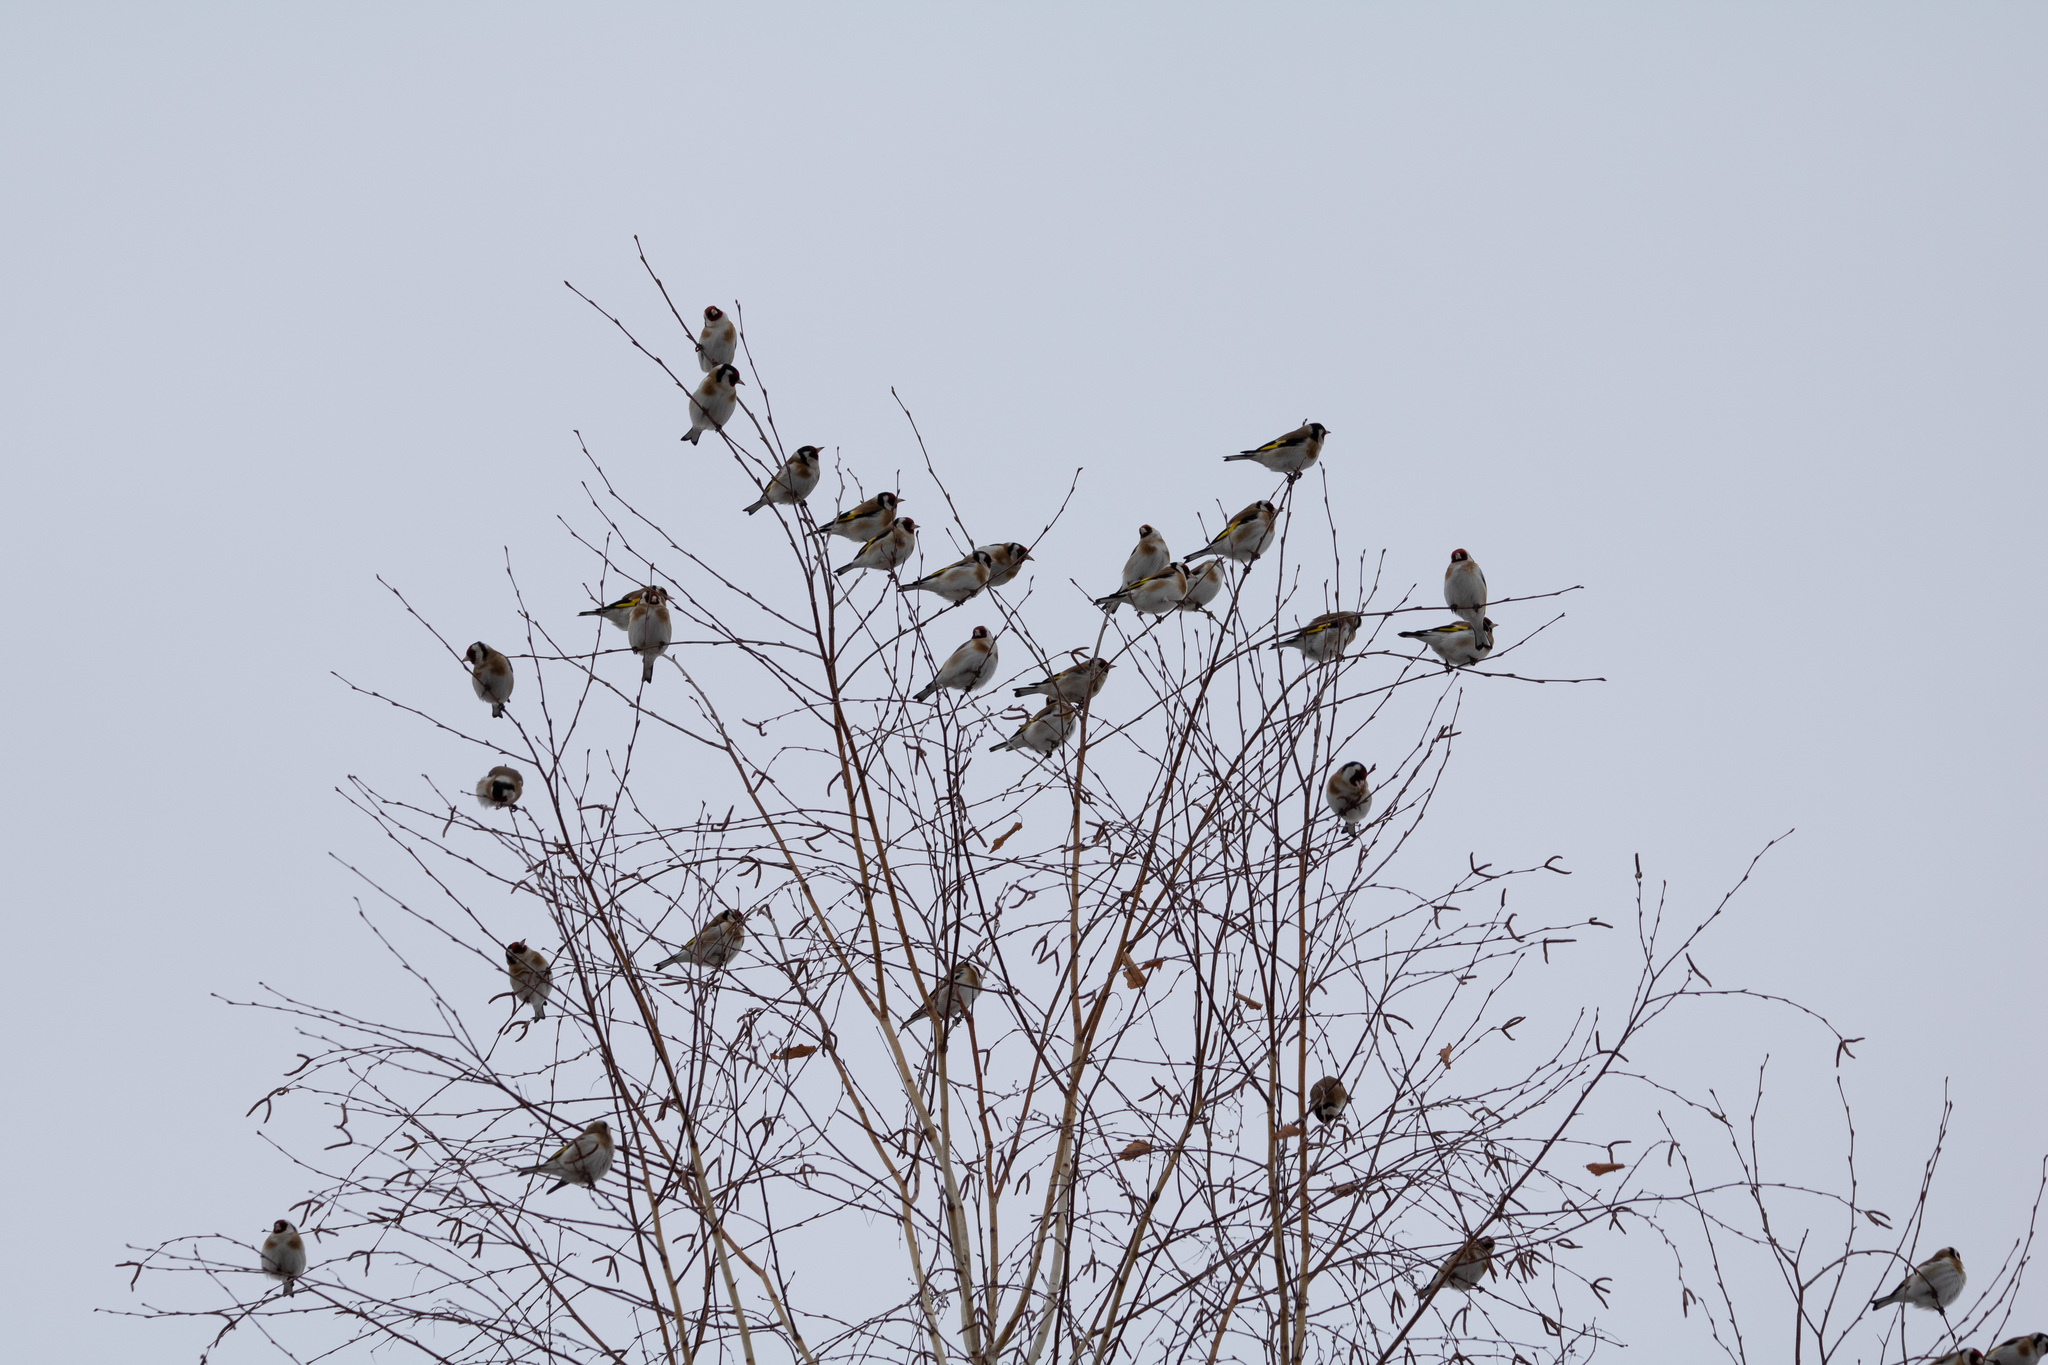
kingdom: Animalia
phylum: Chordata
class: Aves
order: Passeriformes
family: Fringillidae
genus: Carduelis
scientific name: Carduelis carduelis
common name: European goldfinch
